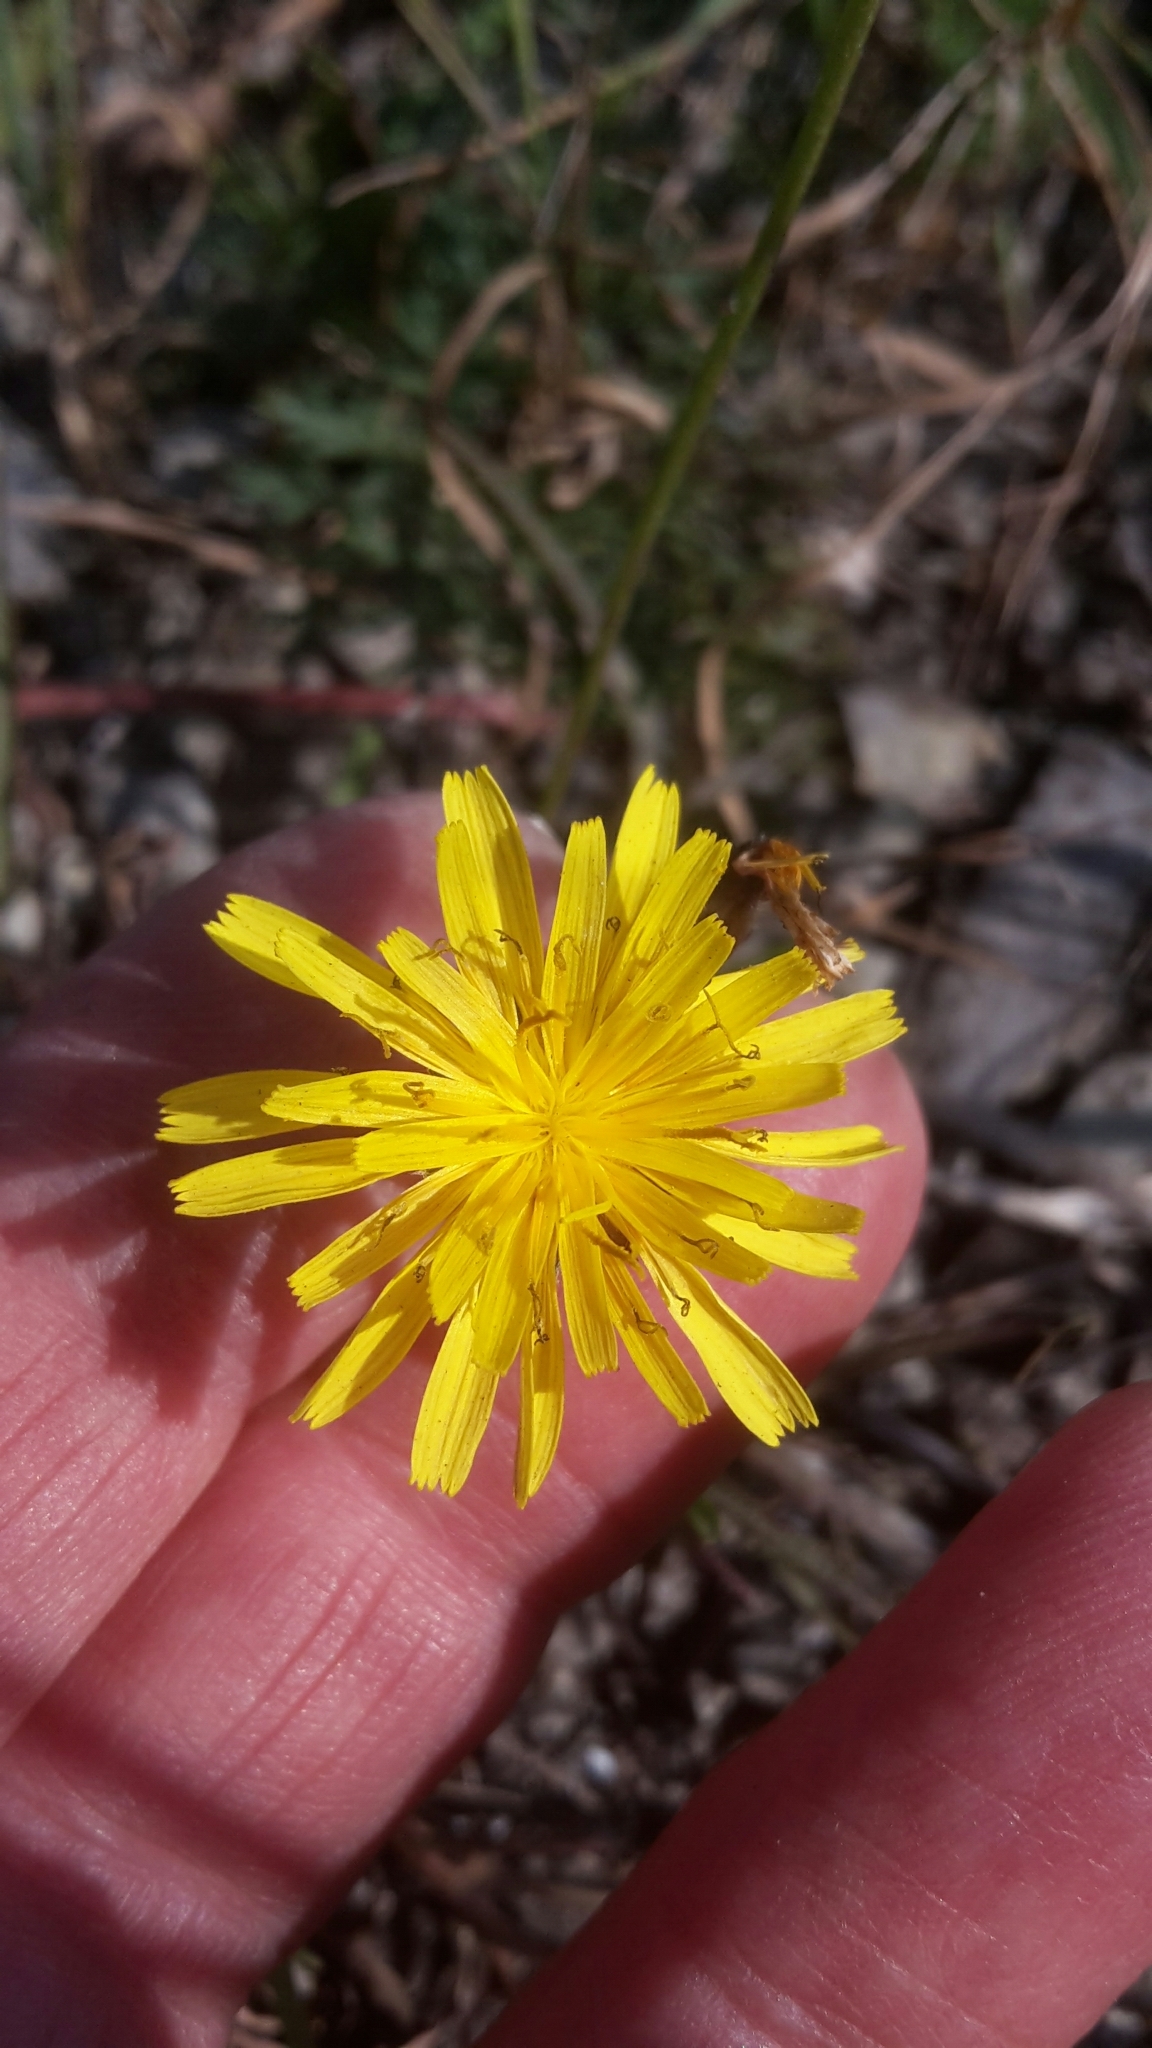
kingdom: Plantae
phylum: Tracheophyta
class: Magnoliopsida
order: Asterales
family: Asteraceae
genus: Scorzoneroides
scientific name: Scorzoneroides autumnalis
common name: Autumn hawkbit
